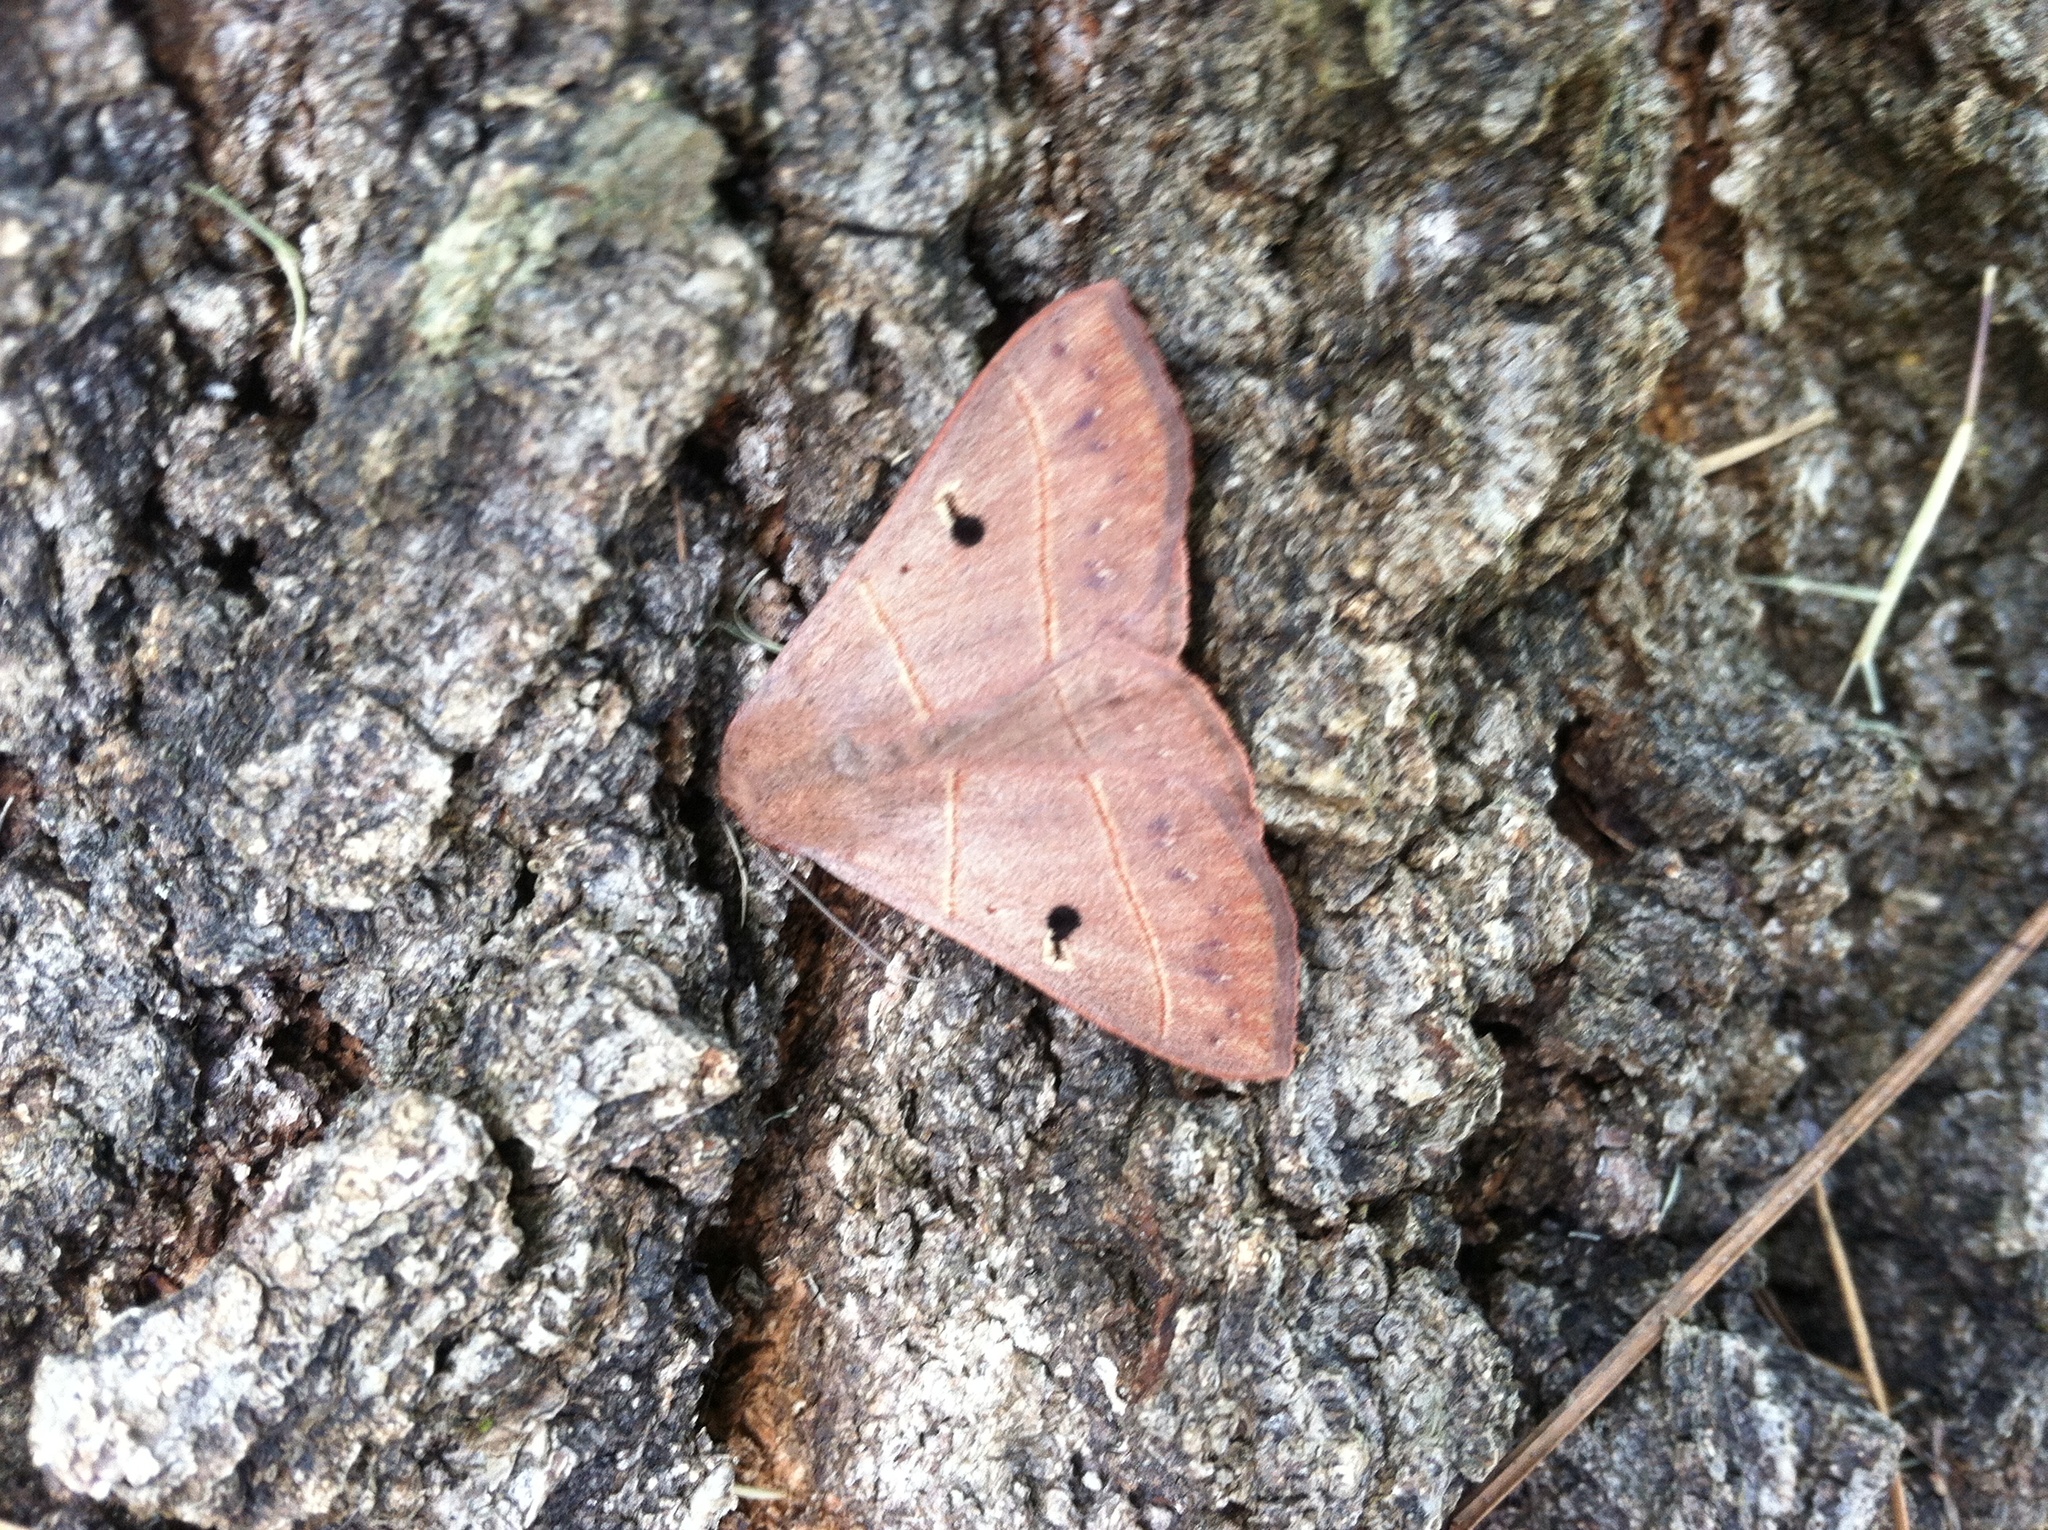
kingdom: Animalia
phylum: Arthropoda
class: Insecta
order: Lepidoptera
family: Erebidae
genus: Panopoda
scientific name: Panopoda rufimargo
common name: Red-lined panopoda moth
